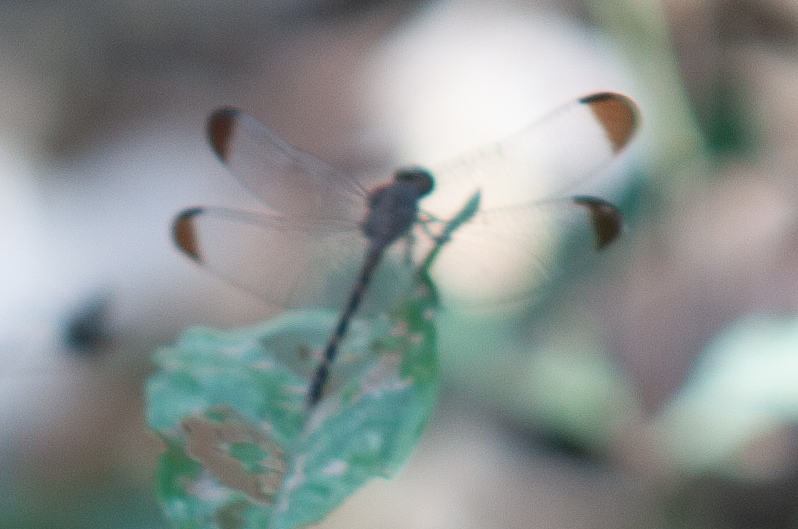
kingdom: Animalia
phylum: Arthropoda
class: Insecta
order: Odonata
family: Libellulidae
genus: Uracis
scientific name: Uracis imbuta
